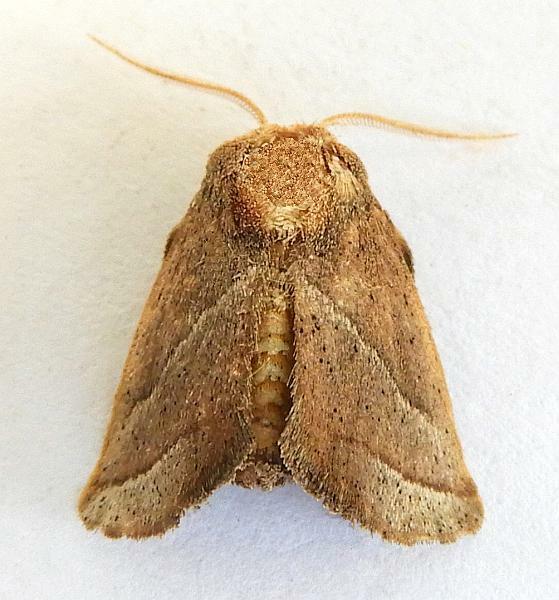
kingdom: Animalia
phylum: Arthropoda
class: Insecta
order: Lepidoptera
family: Limacodidae
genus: Natada
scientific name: Natada nasoni
